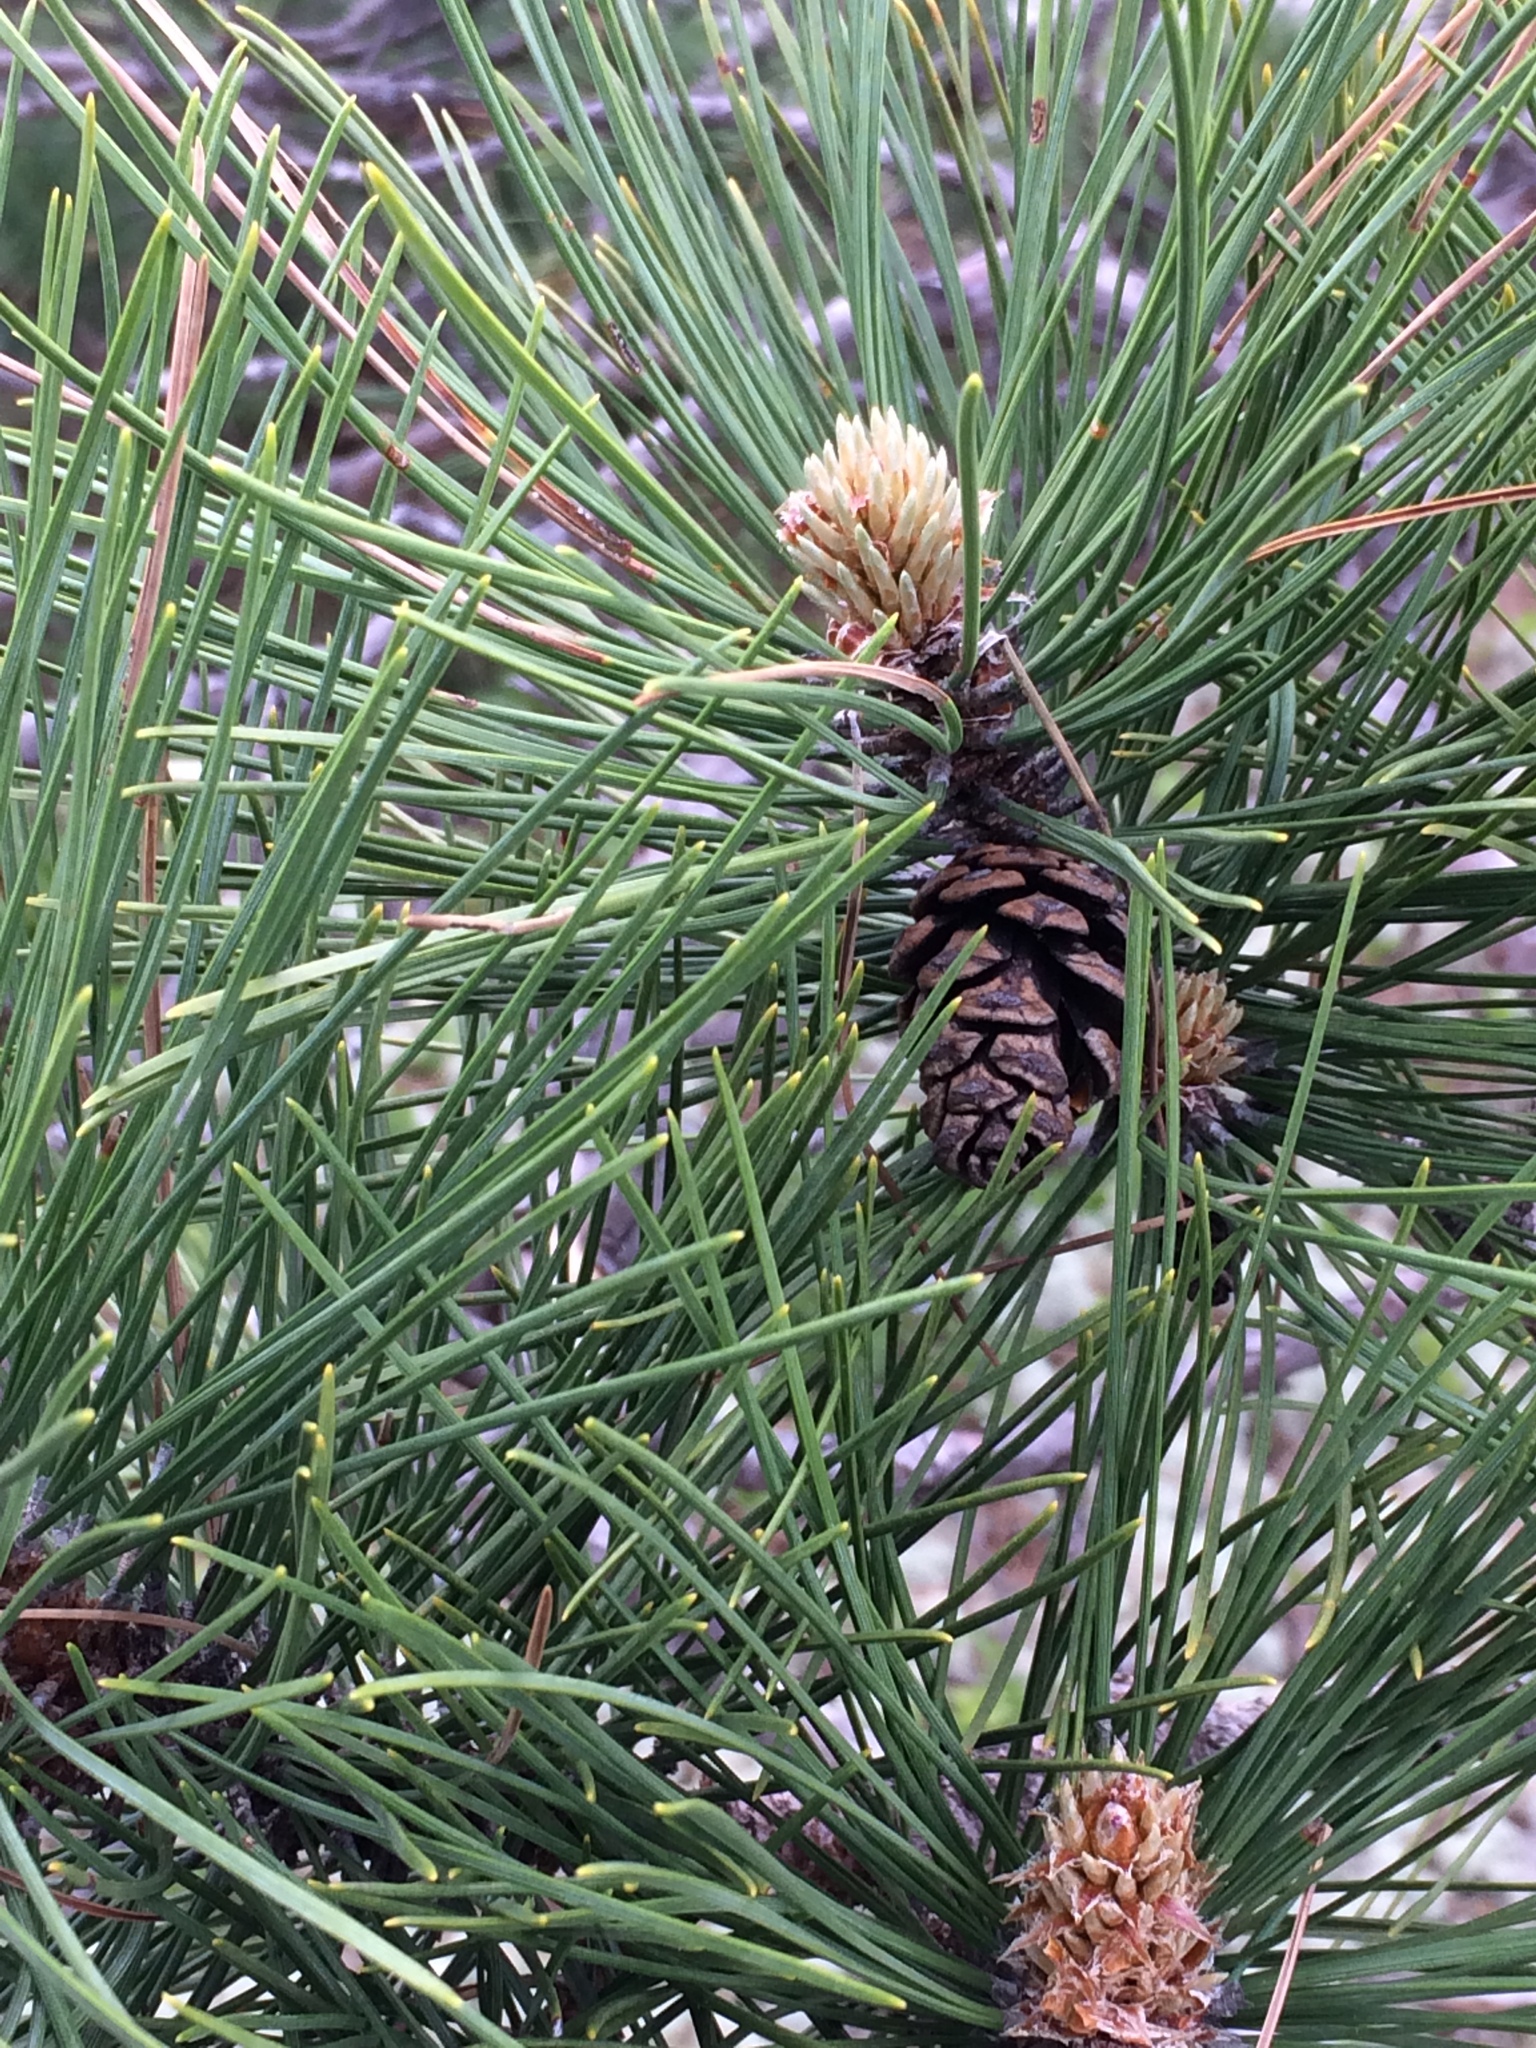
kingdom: Plantae
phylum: Tracheophyta
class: Pinopsida
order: Pinales
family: Pinaceae
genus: Pinus
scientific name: Pinus resinosa
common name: Norway pine
